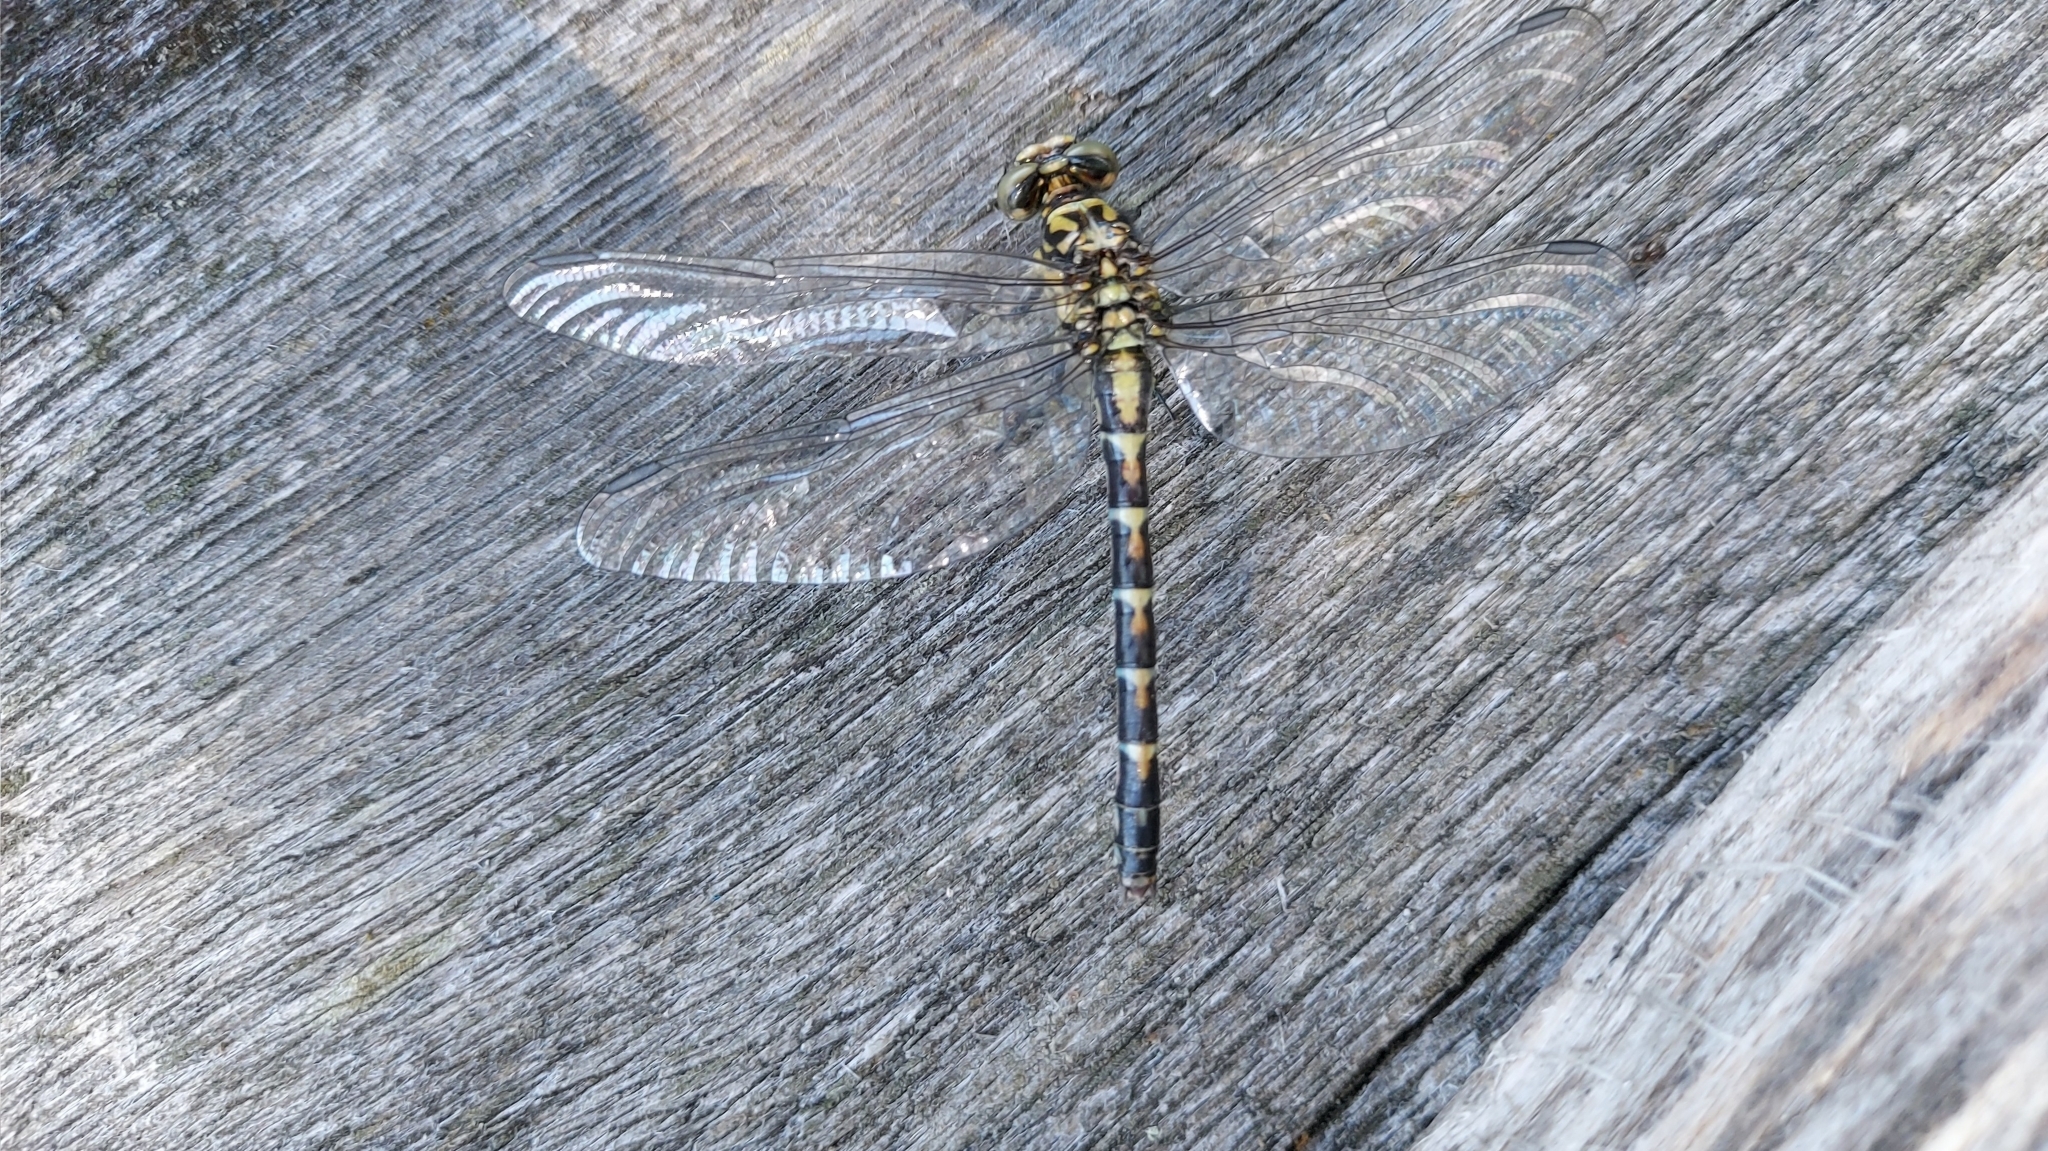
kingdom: Animalia
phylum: Arthropoda
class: Insecta
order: Odonata
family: Gomphidae
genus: Onychogomphus
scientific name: Onychogomphus forcipatus
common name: Small pincertail
